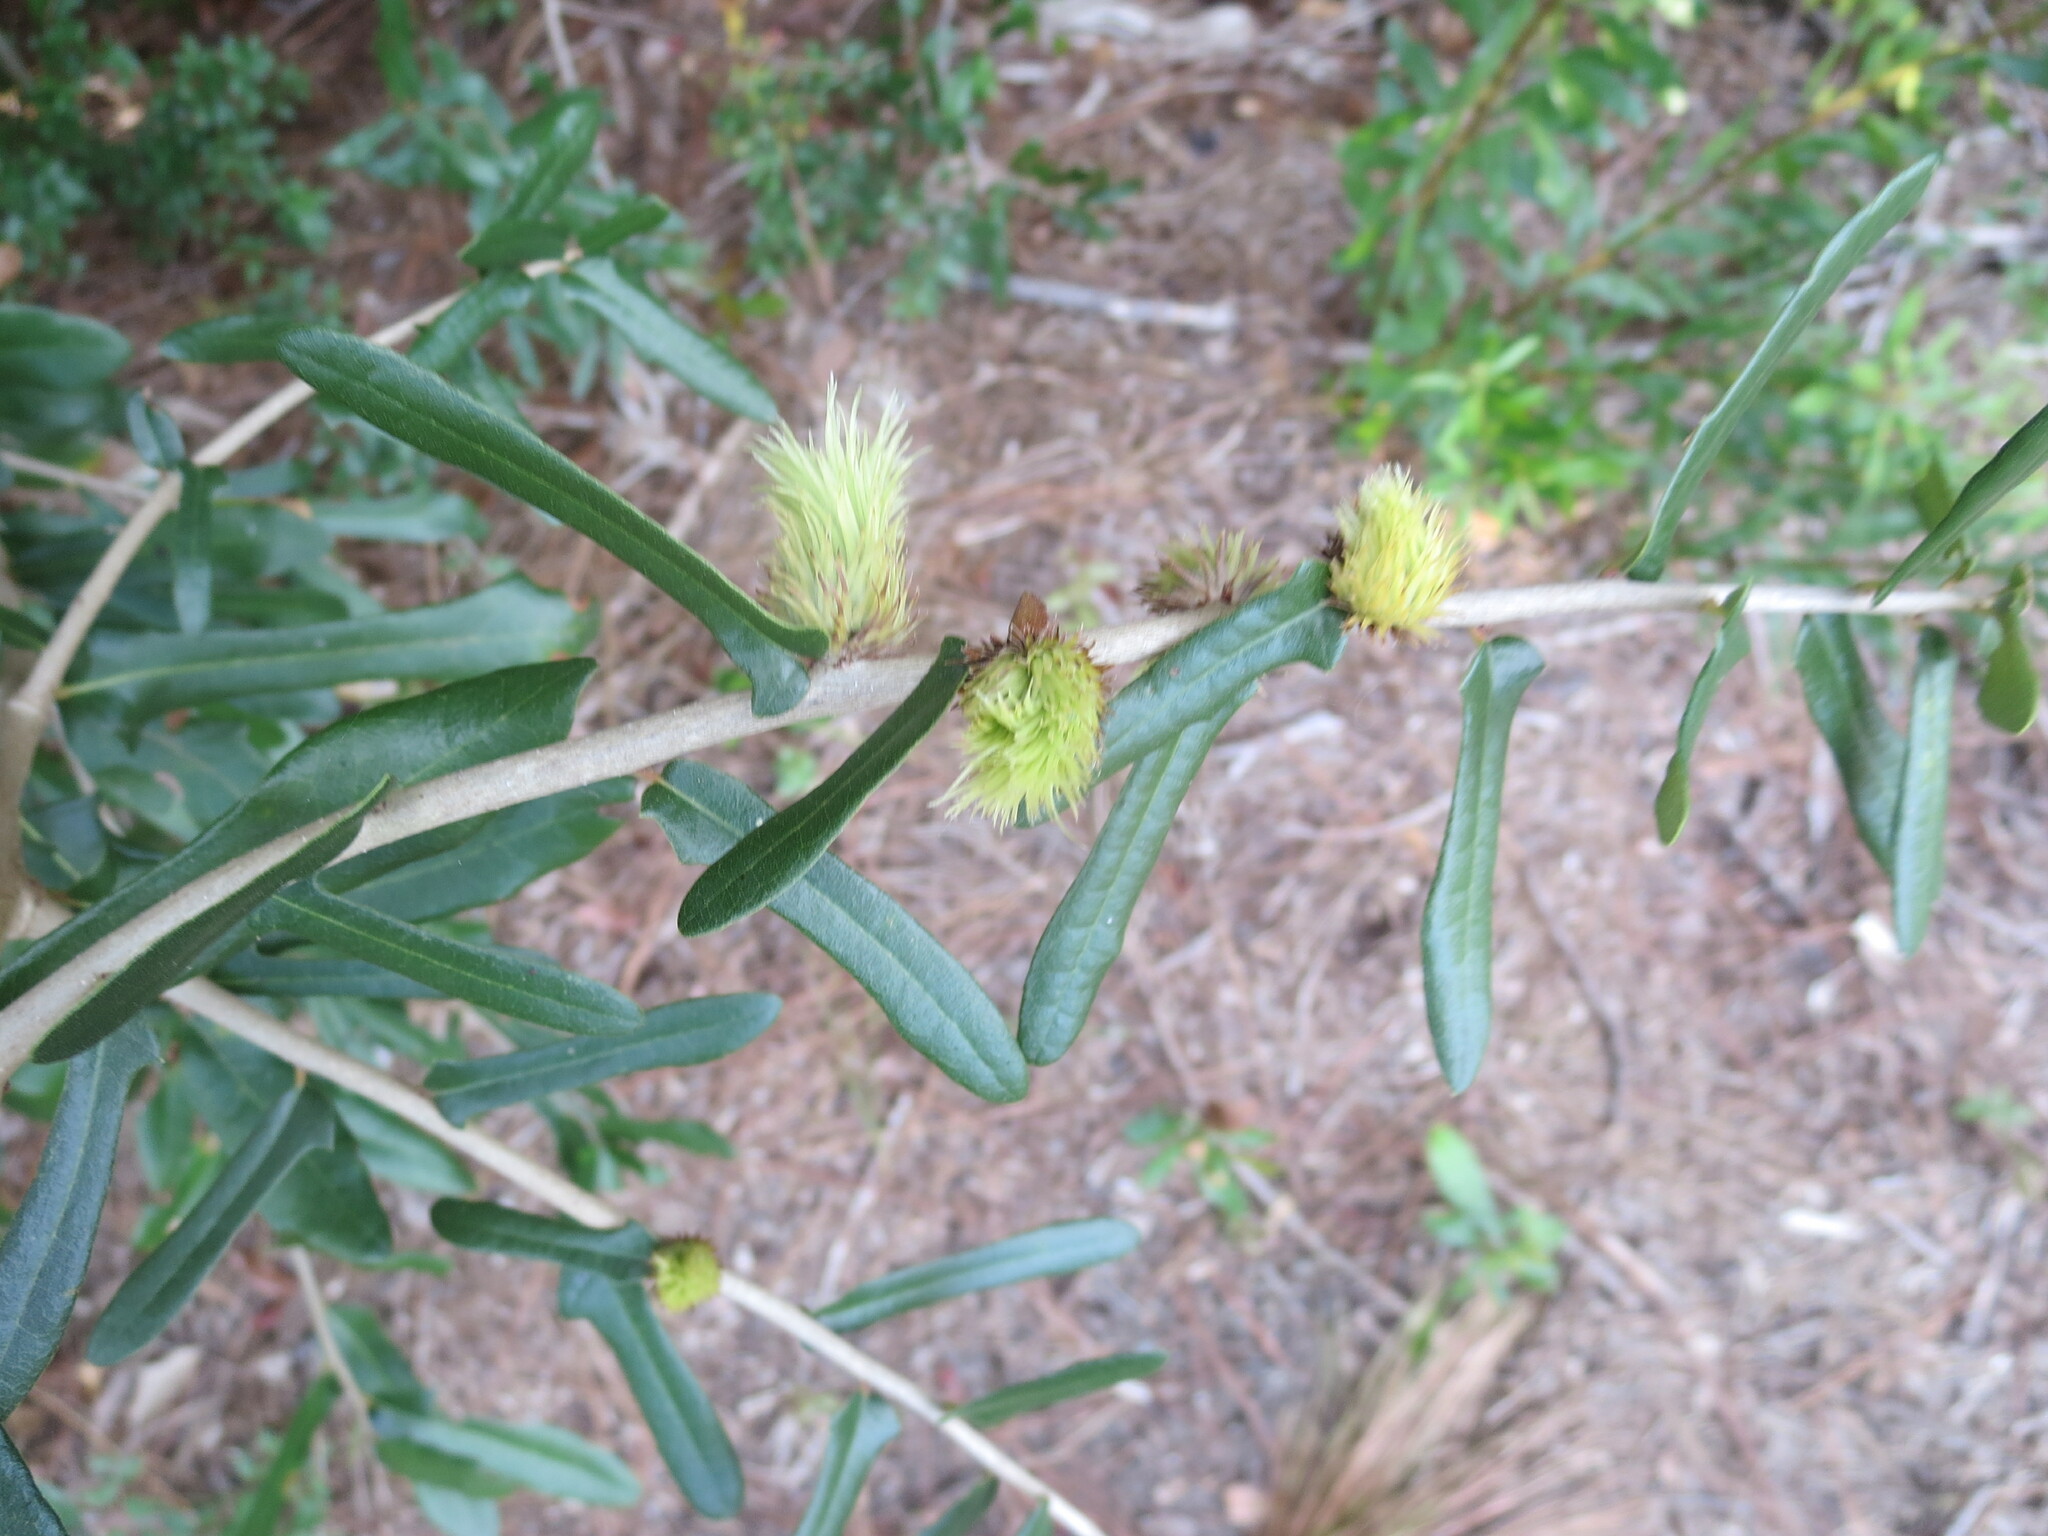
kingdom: Animalia
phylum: Arthropoda
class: Insecta
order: Hymenoptera
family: Cynipidae
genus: Andricus
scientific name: Andricus quercusfoliatus
